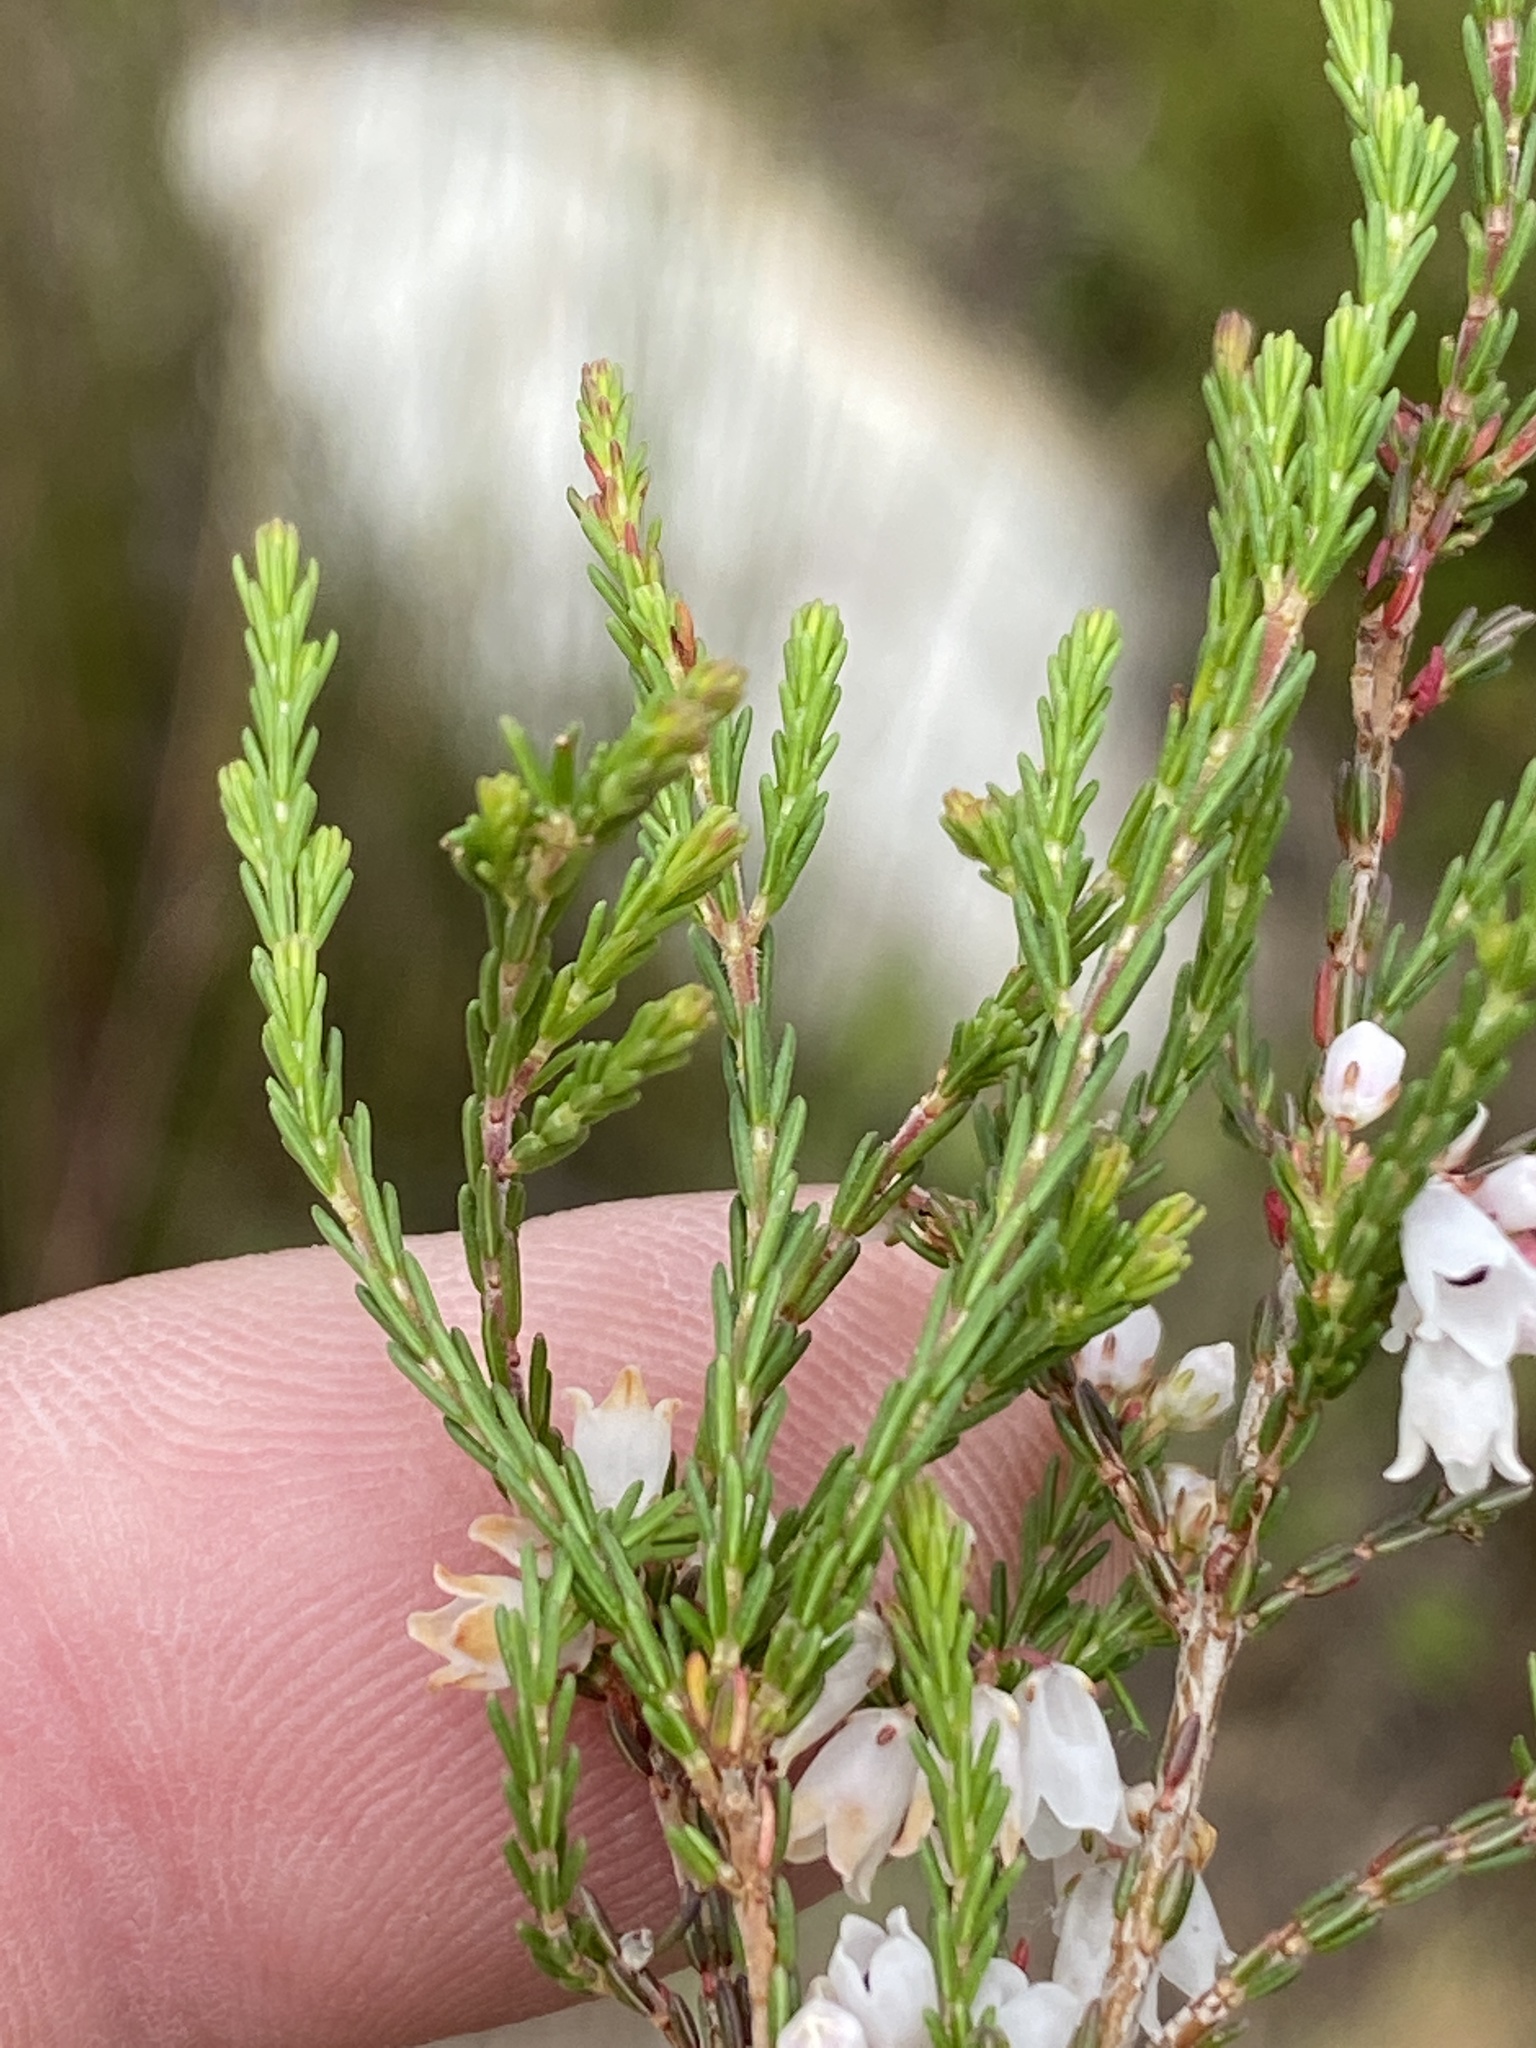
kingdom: Plantae
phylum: Tracheophyta
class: Magnoliopsida
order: Ericales
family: Ericaceae
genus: Erica
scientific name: Erica quadrangularis
